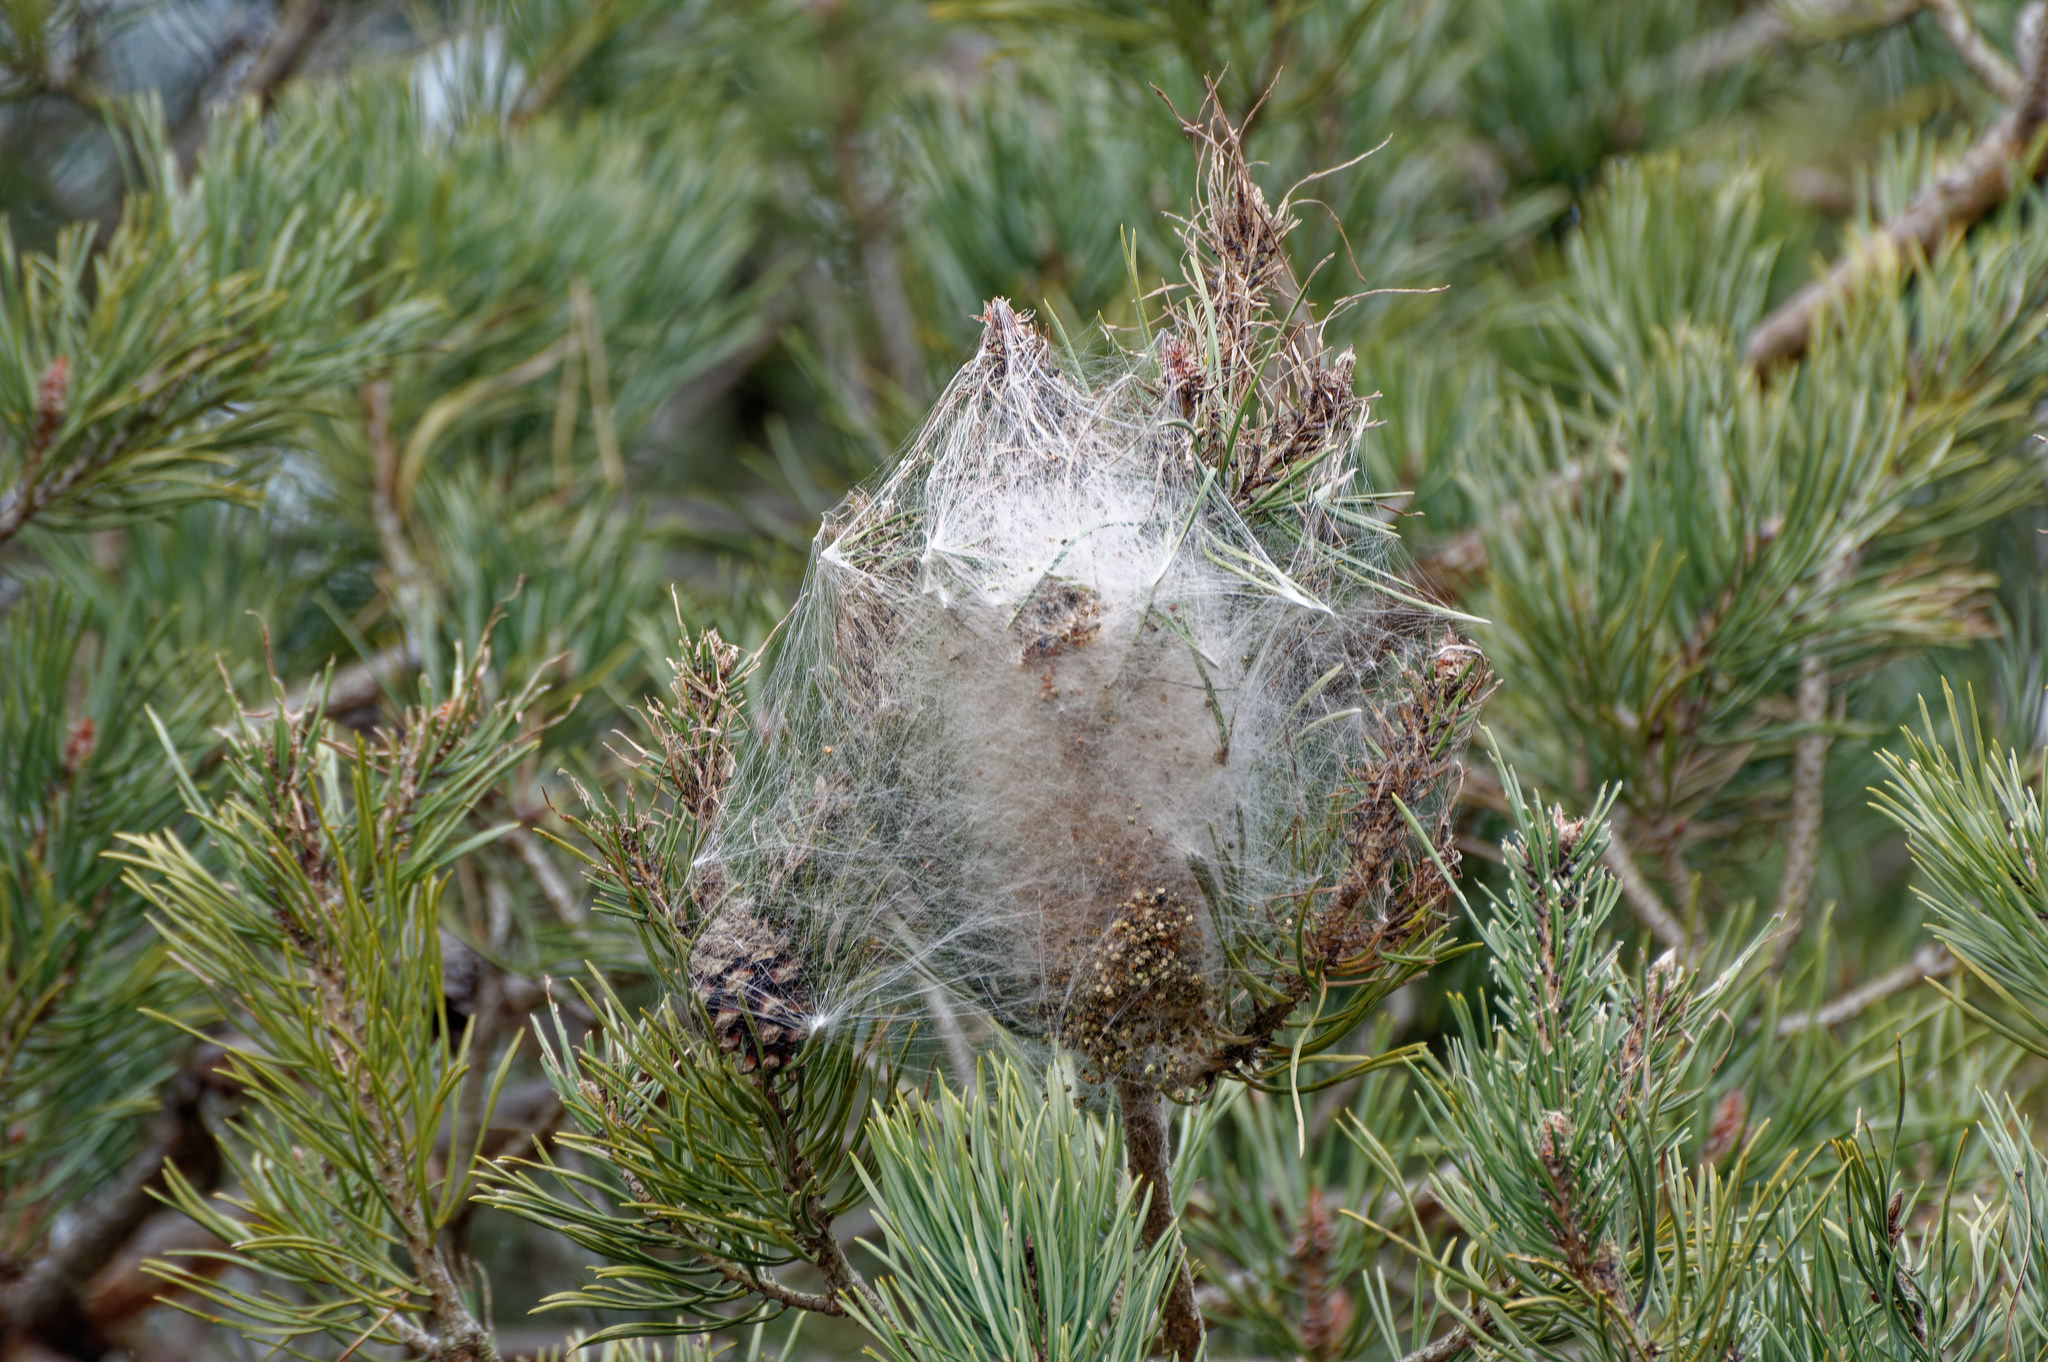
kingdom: Animalia
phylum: Arthropoda
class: Insecta
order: Lepidoptera
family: Notodontidae
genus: Thaumetopoea
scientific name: Thaumetopoea pityocampa
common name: Pine processionary
